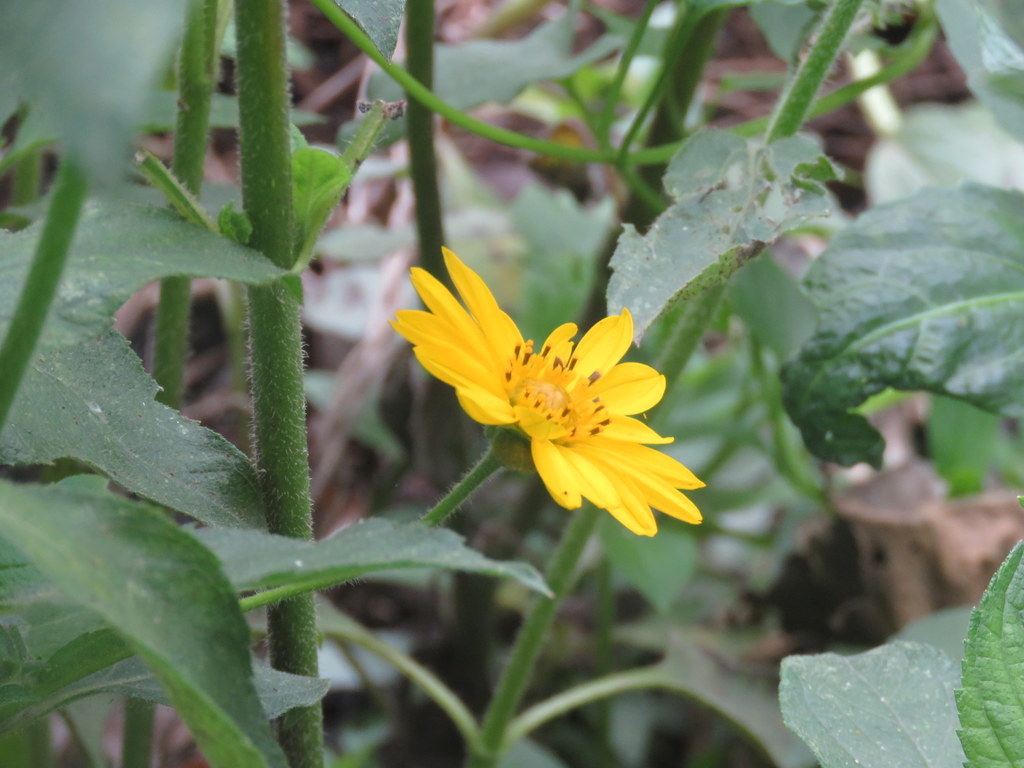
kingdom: Plantae
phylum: Tracheophyta
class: Magnoliopsida
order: Asterales
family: Asteraceae
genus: Wedelia
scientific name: Wedelia silphioides
